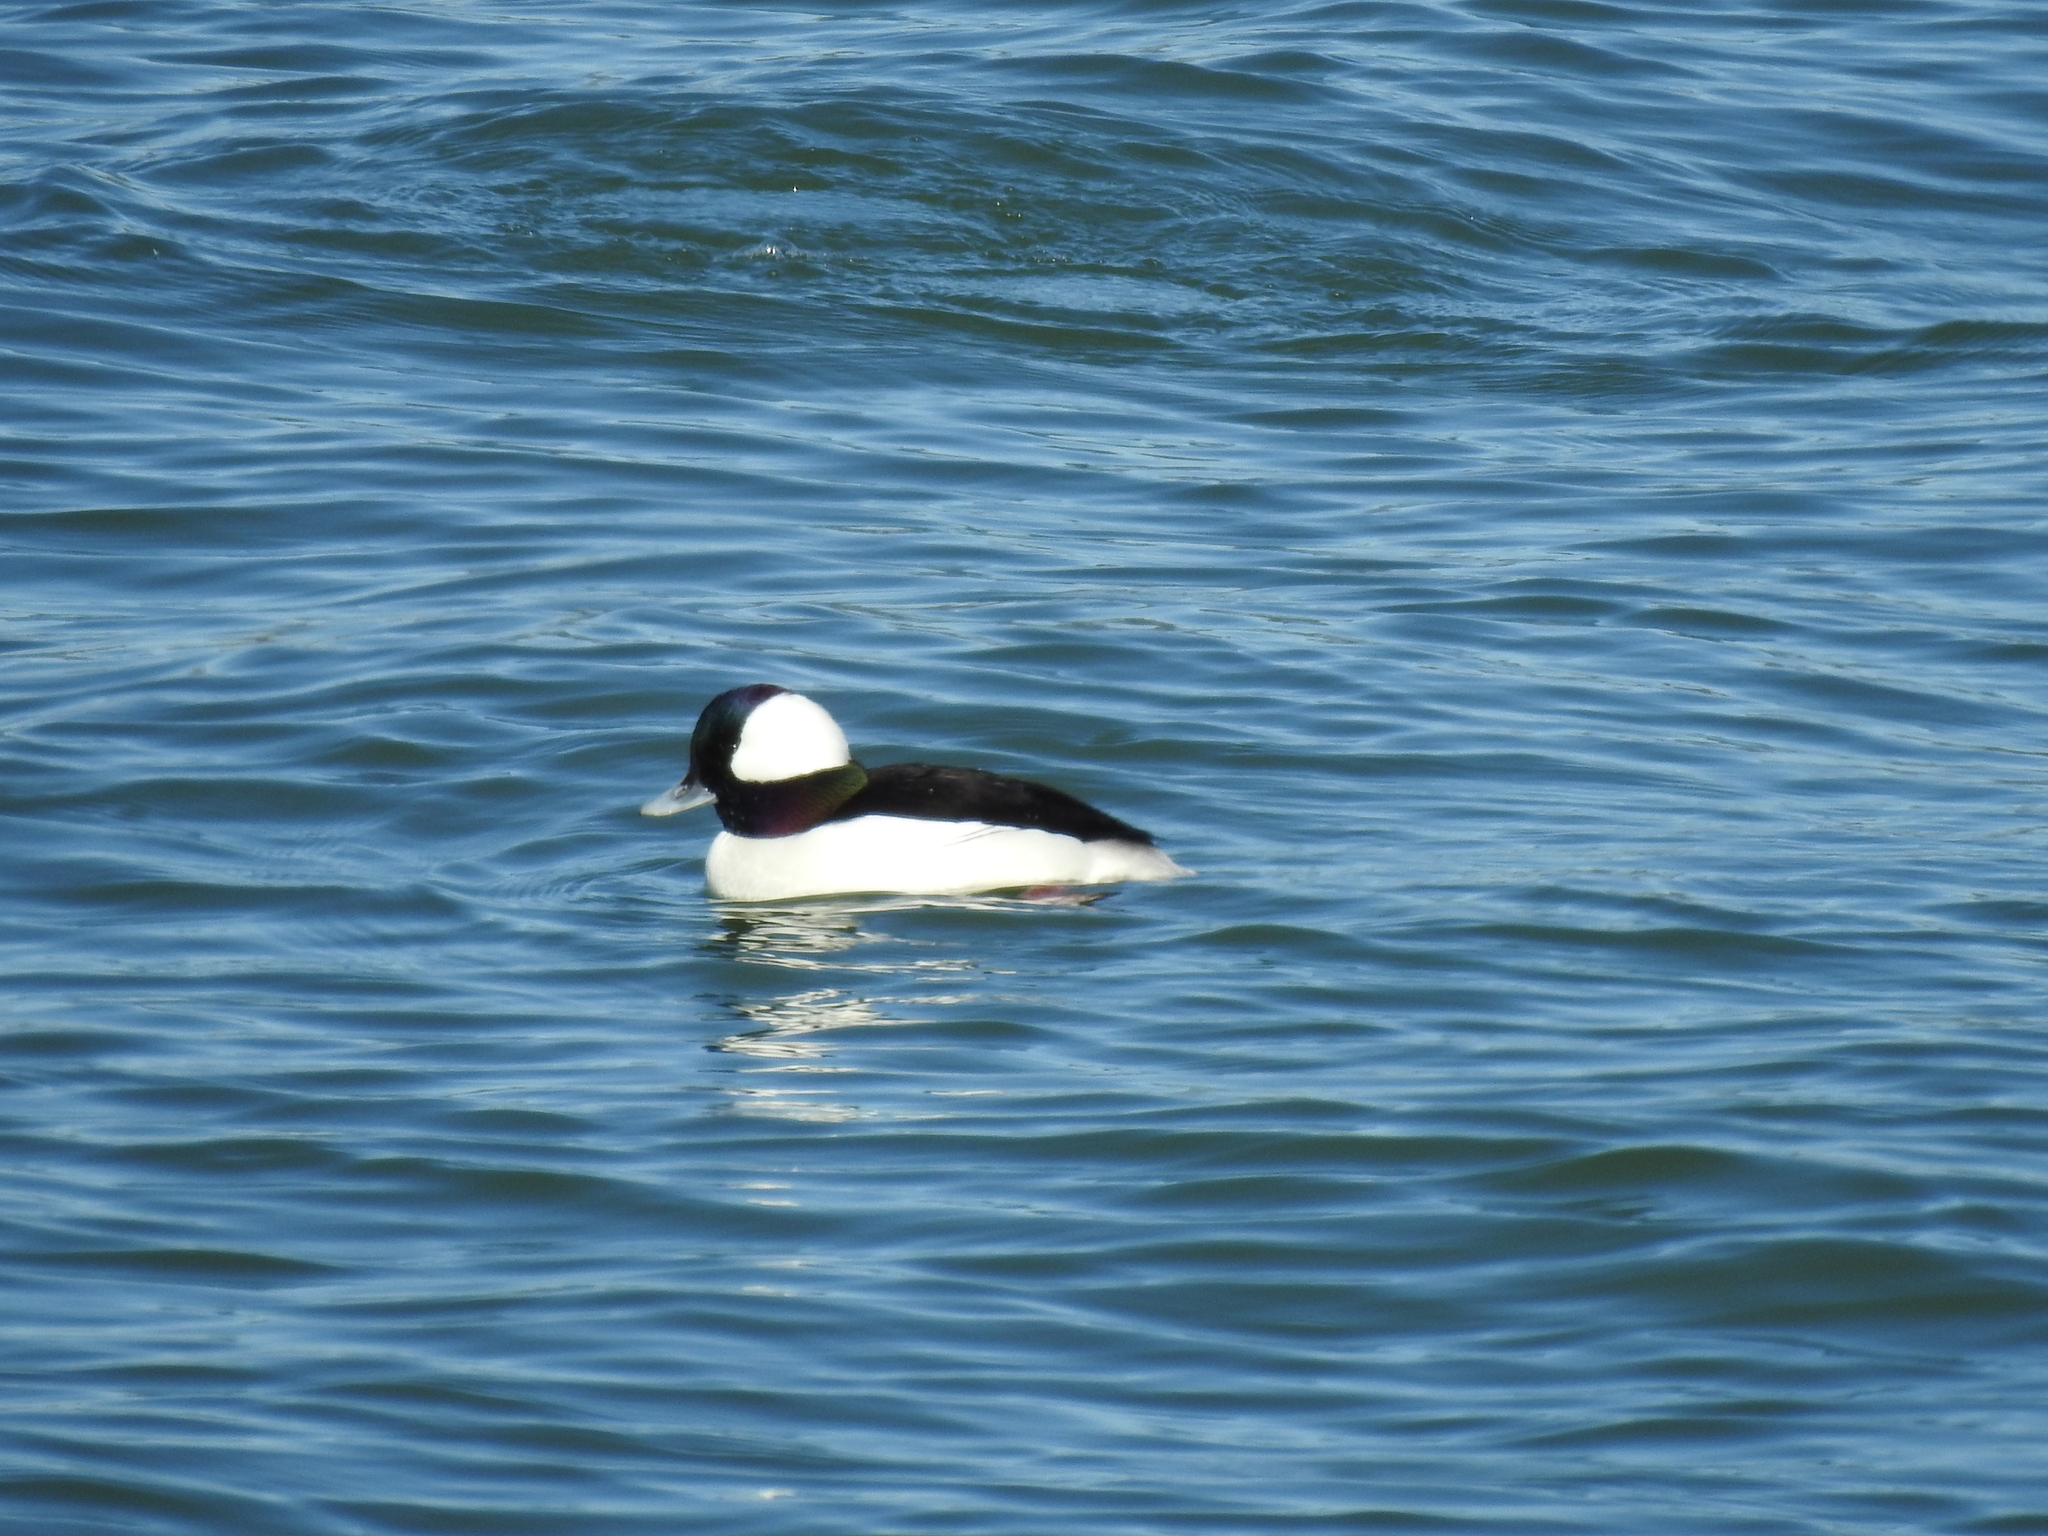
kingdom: Animalia
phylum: Chordata
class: Aves
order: Anseriformes
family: Anatidae
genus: Bucephala
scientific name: Bucephala albeola
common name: Bufflehead
